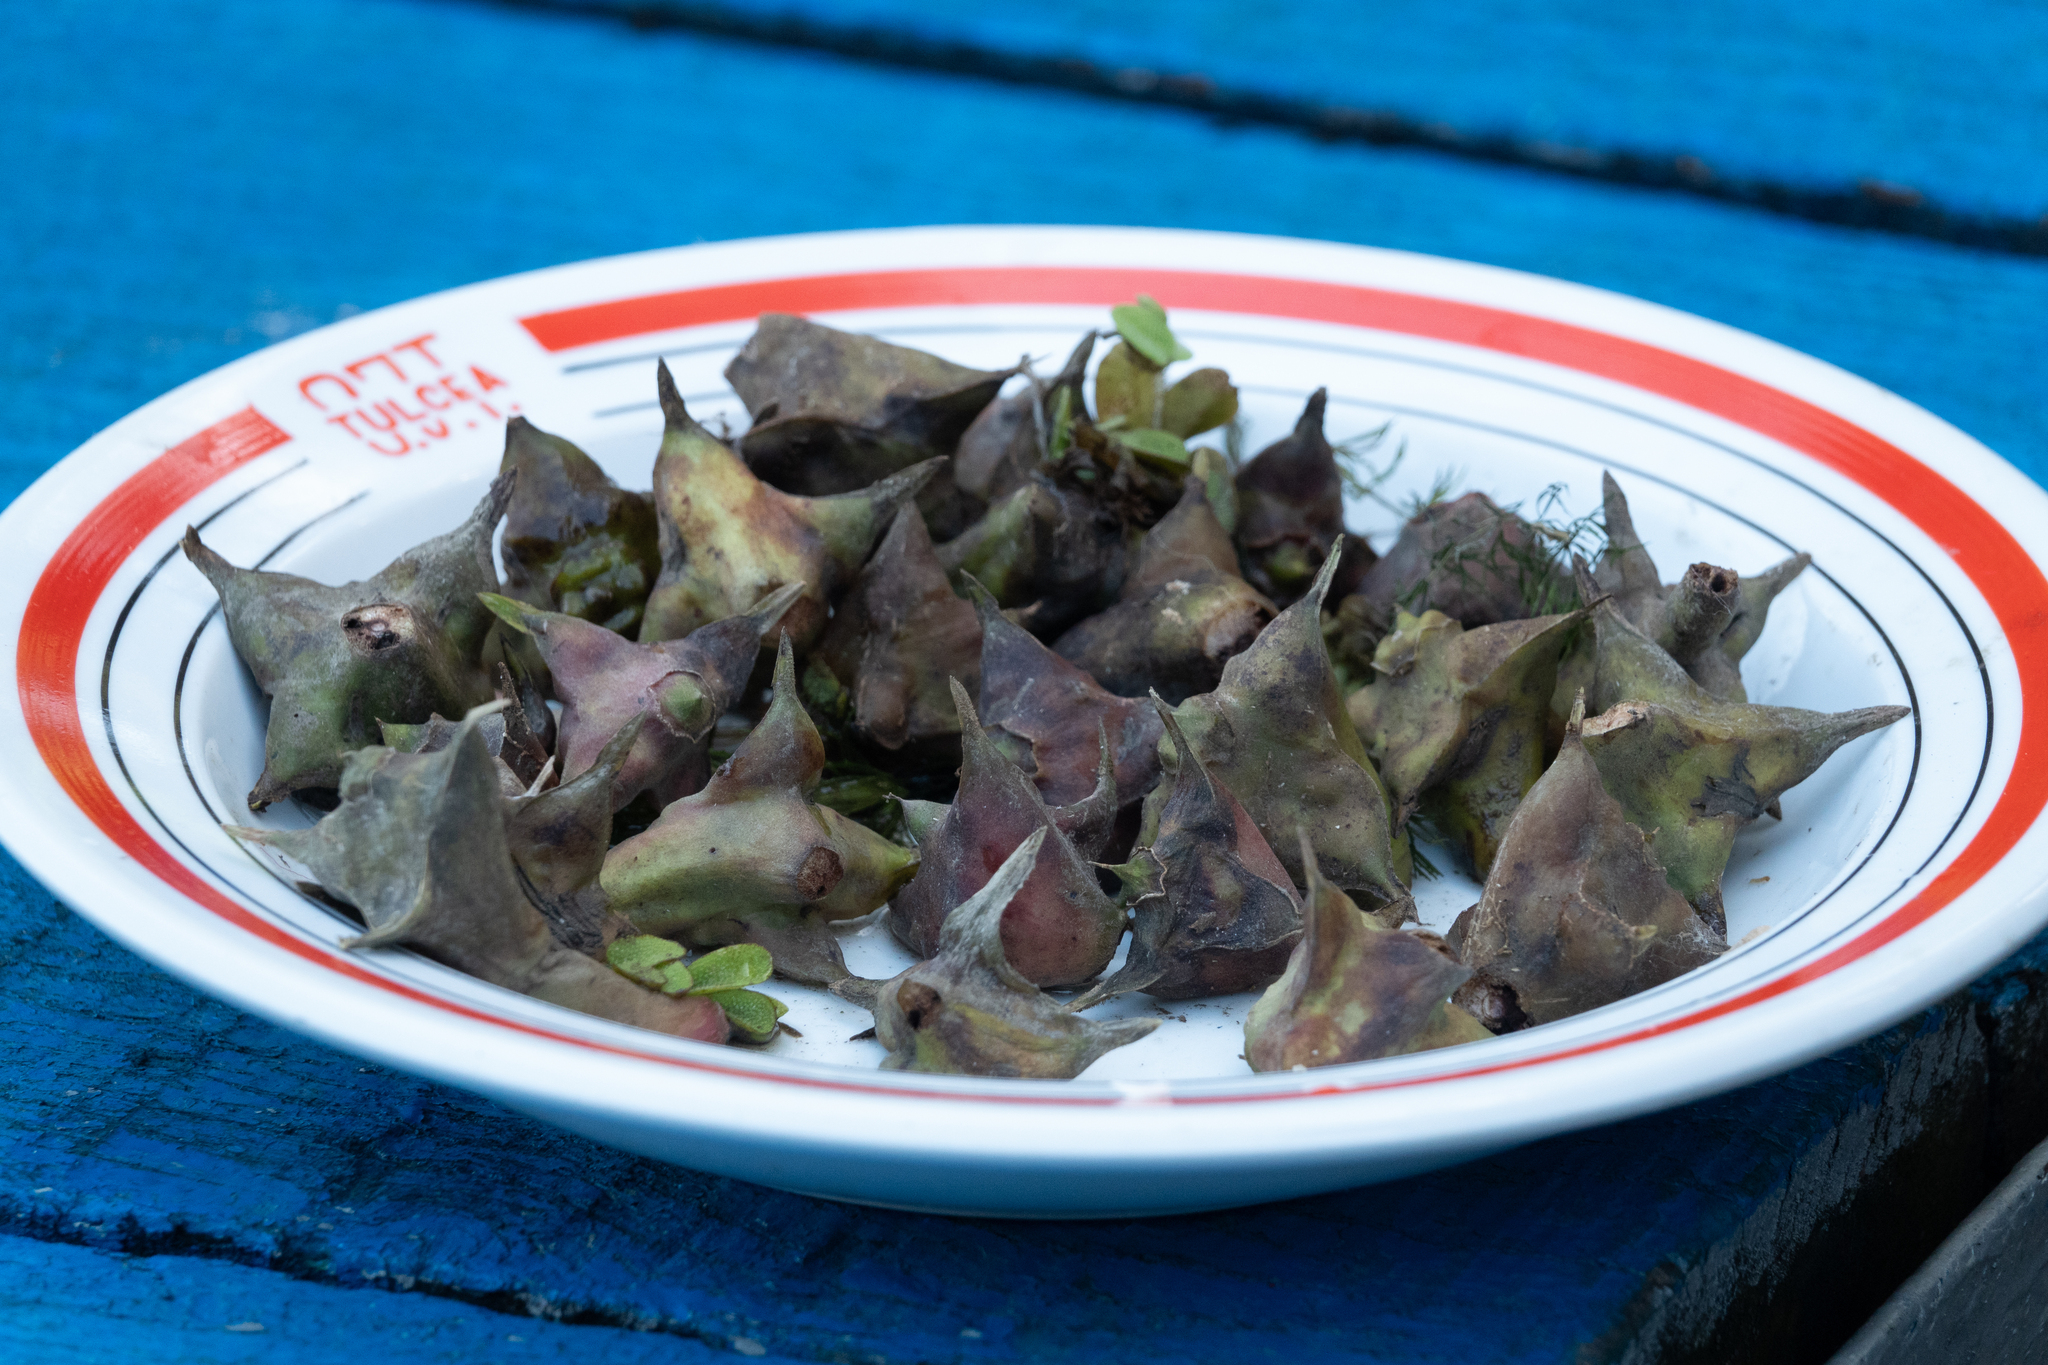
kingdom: Plantae
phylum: Tracheophyta
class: Magnoliopsida
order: Myrtales
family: Lythraceae
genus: Trapa
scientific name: Trapa natans
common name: Water chestnut
